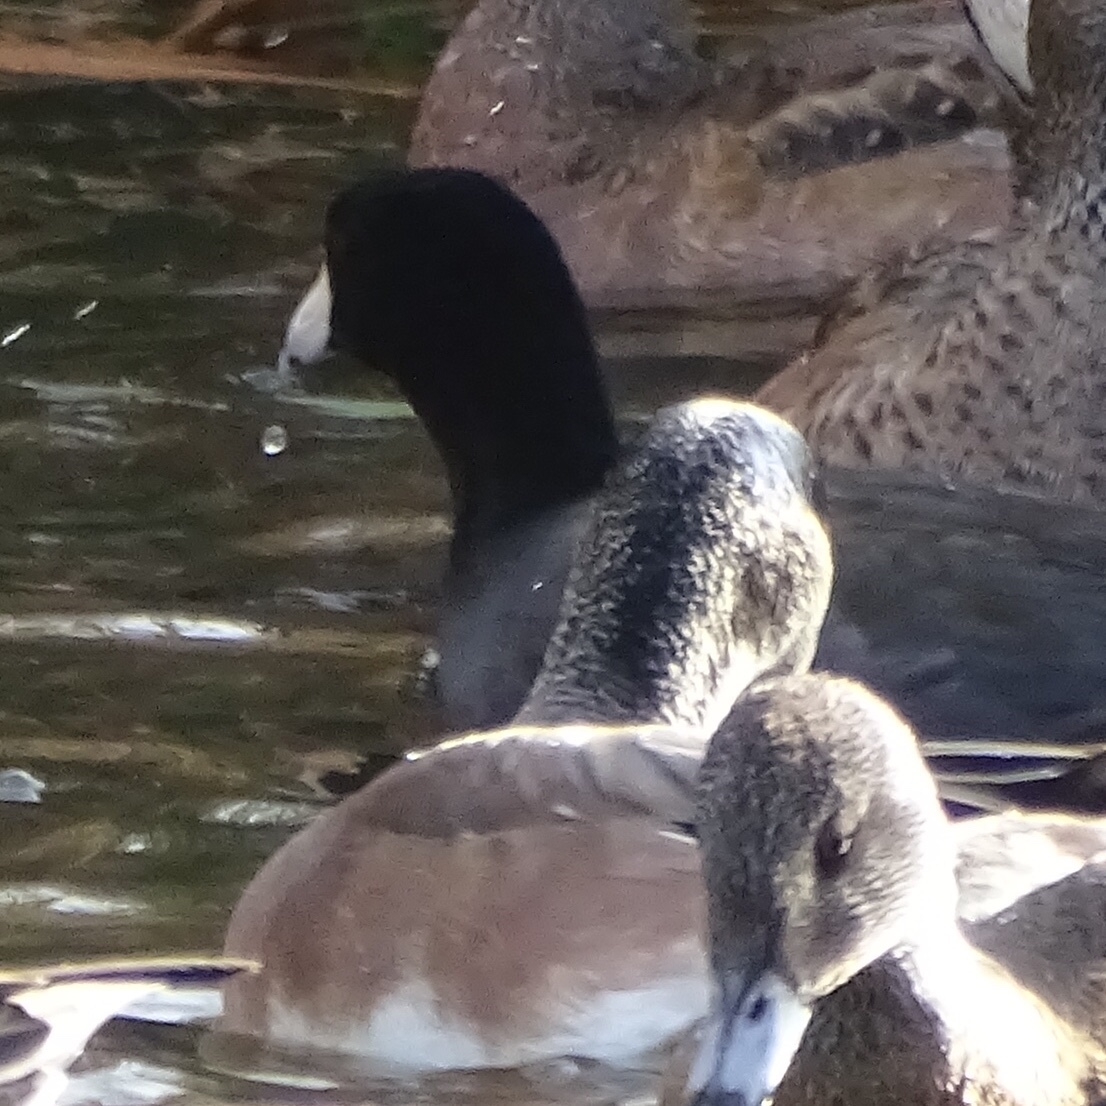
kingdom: Animalia
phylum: Chordata
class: Aves
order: Gruiformes
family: Rallidae
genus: Fulica
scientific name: Fulica americana
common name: American coot
